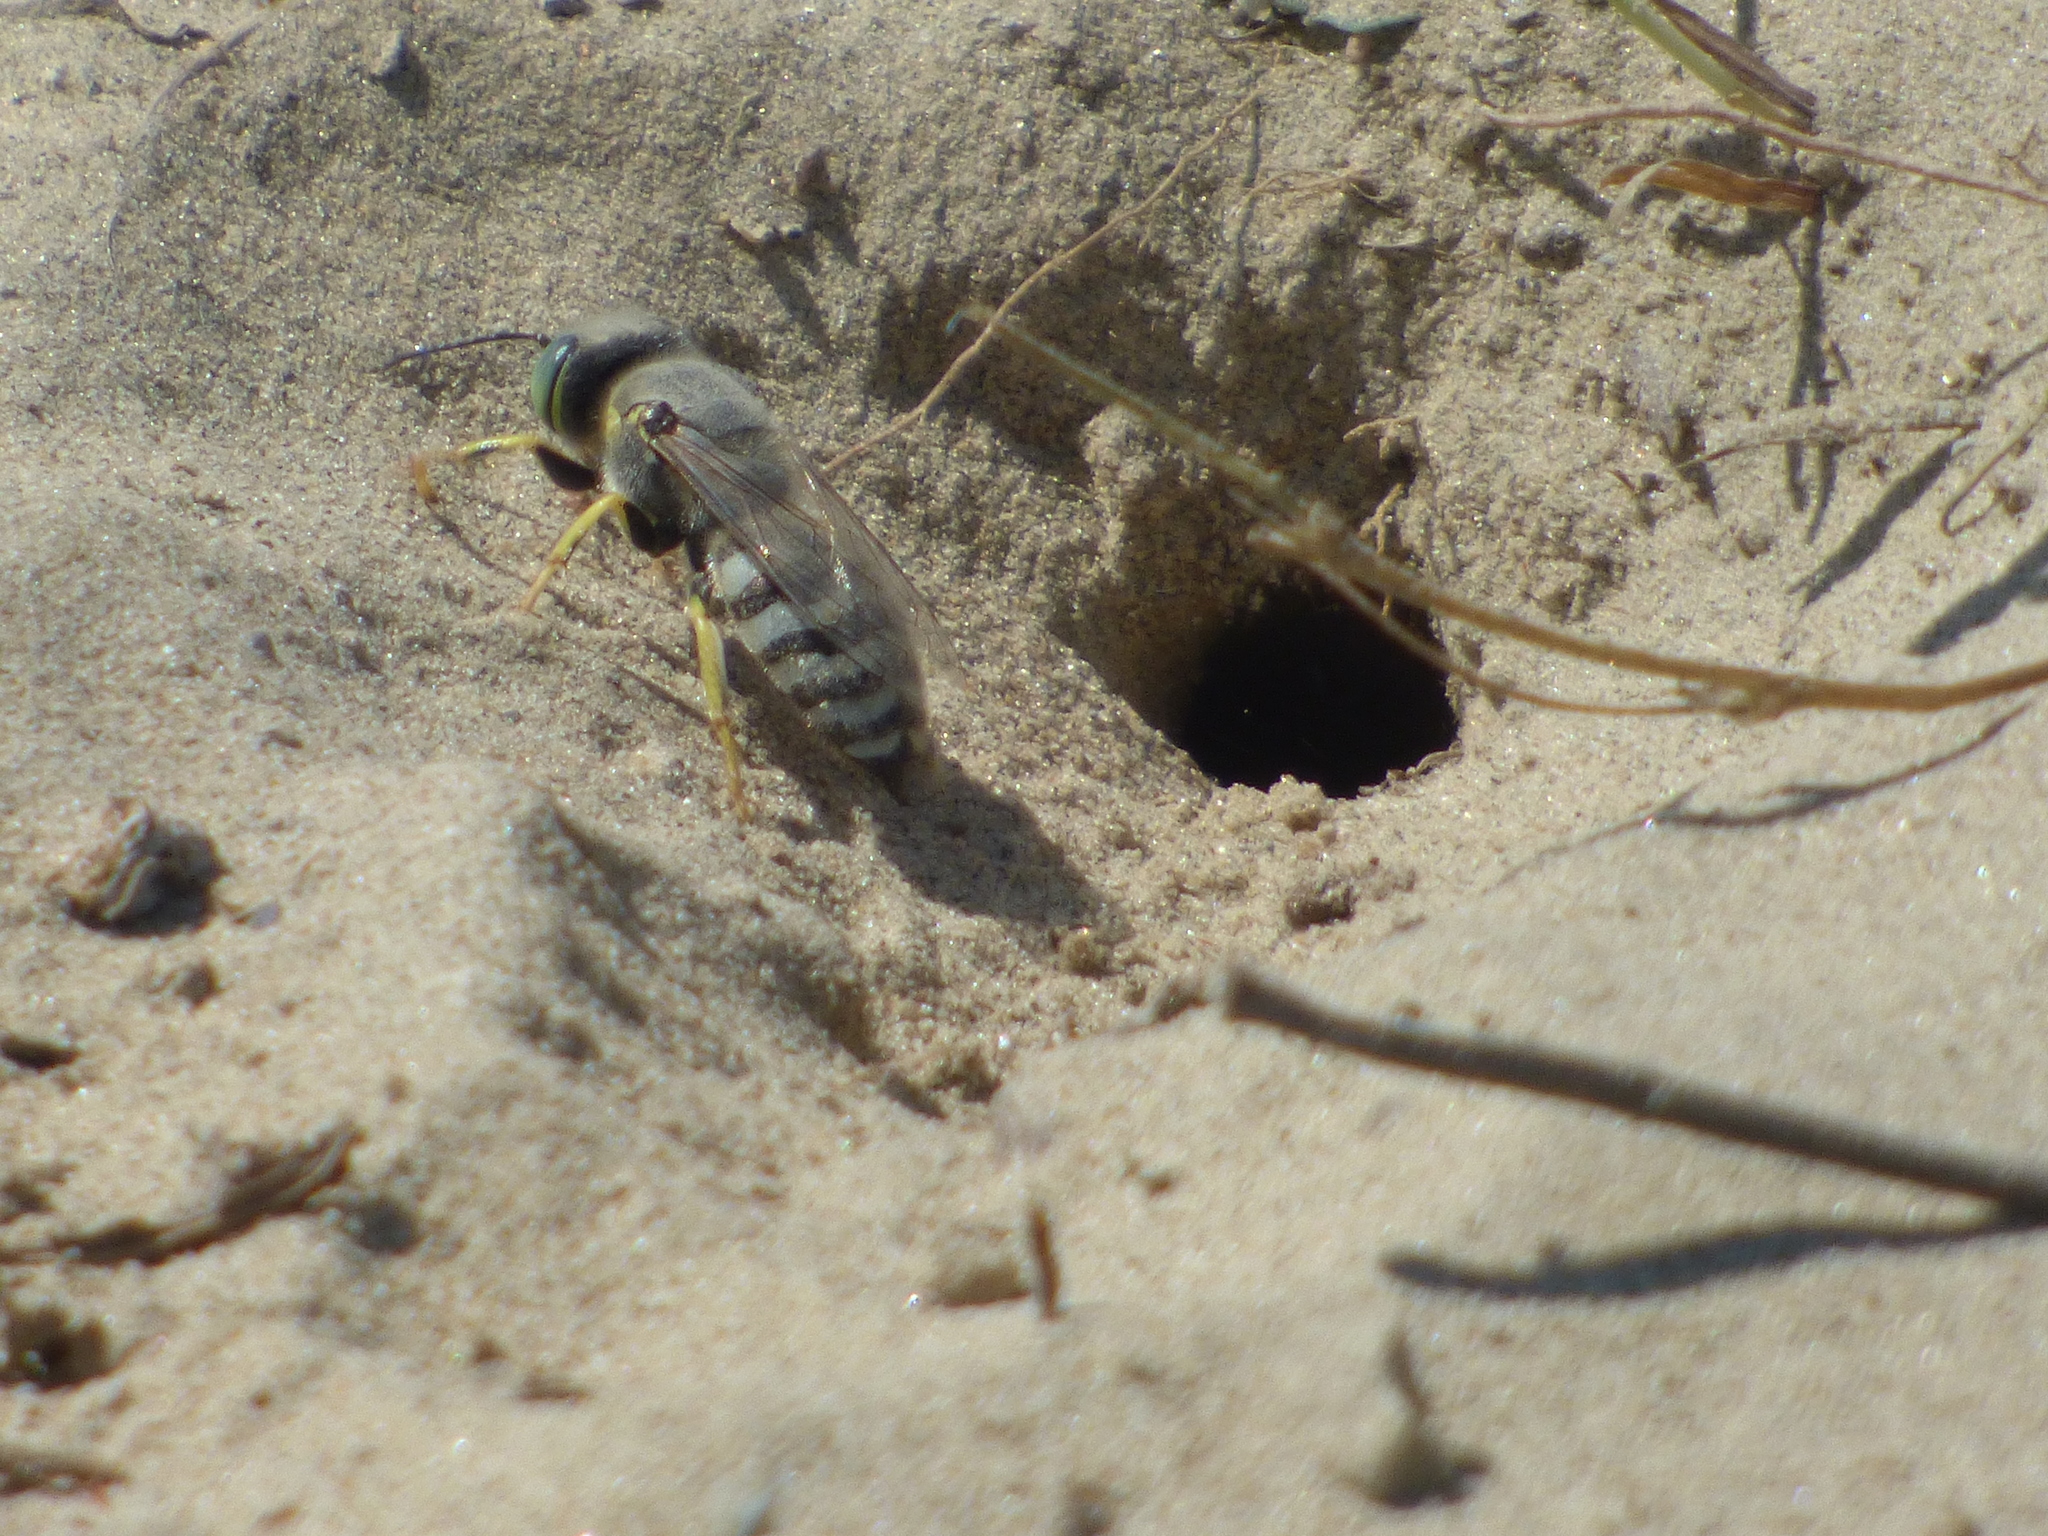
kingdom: Animalia
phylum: Arthropoda
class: Insecta
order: Hymenoptera
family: Crabronidae
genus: Bembix
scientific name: Bembix americana
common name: American sand wasp
